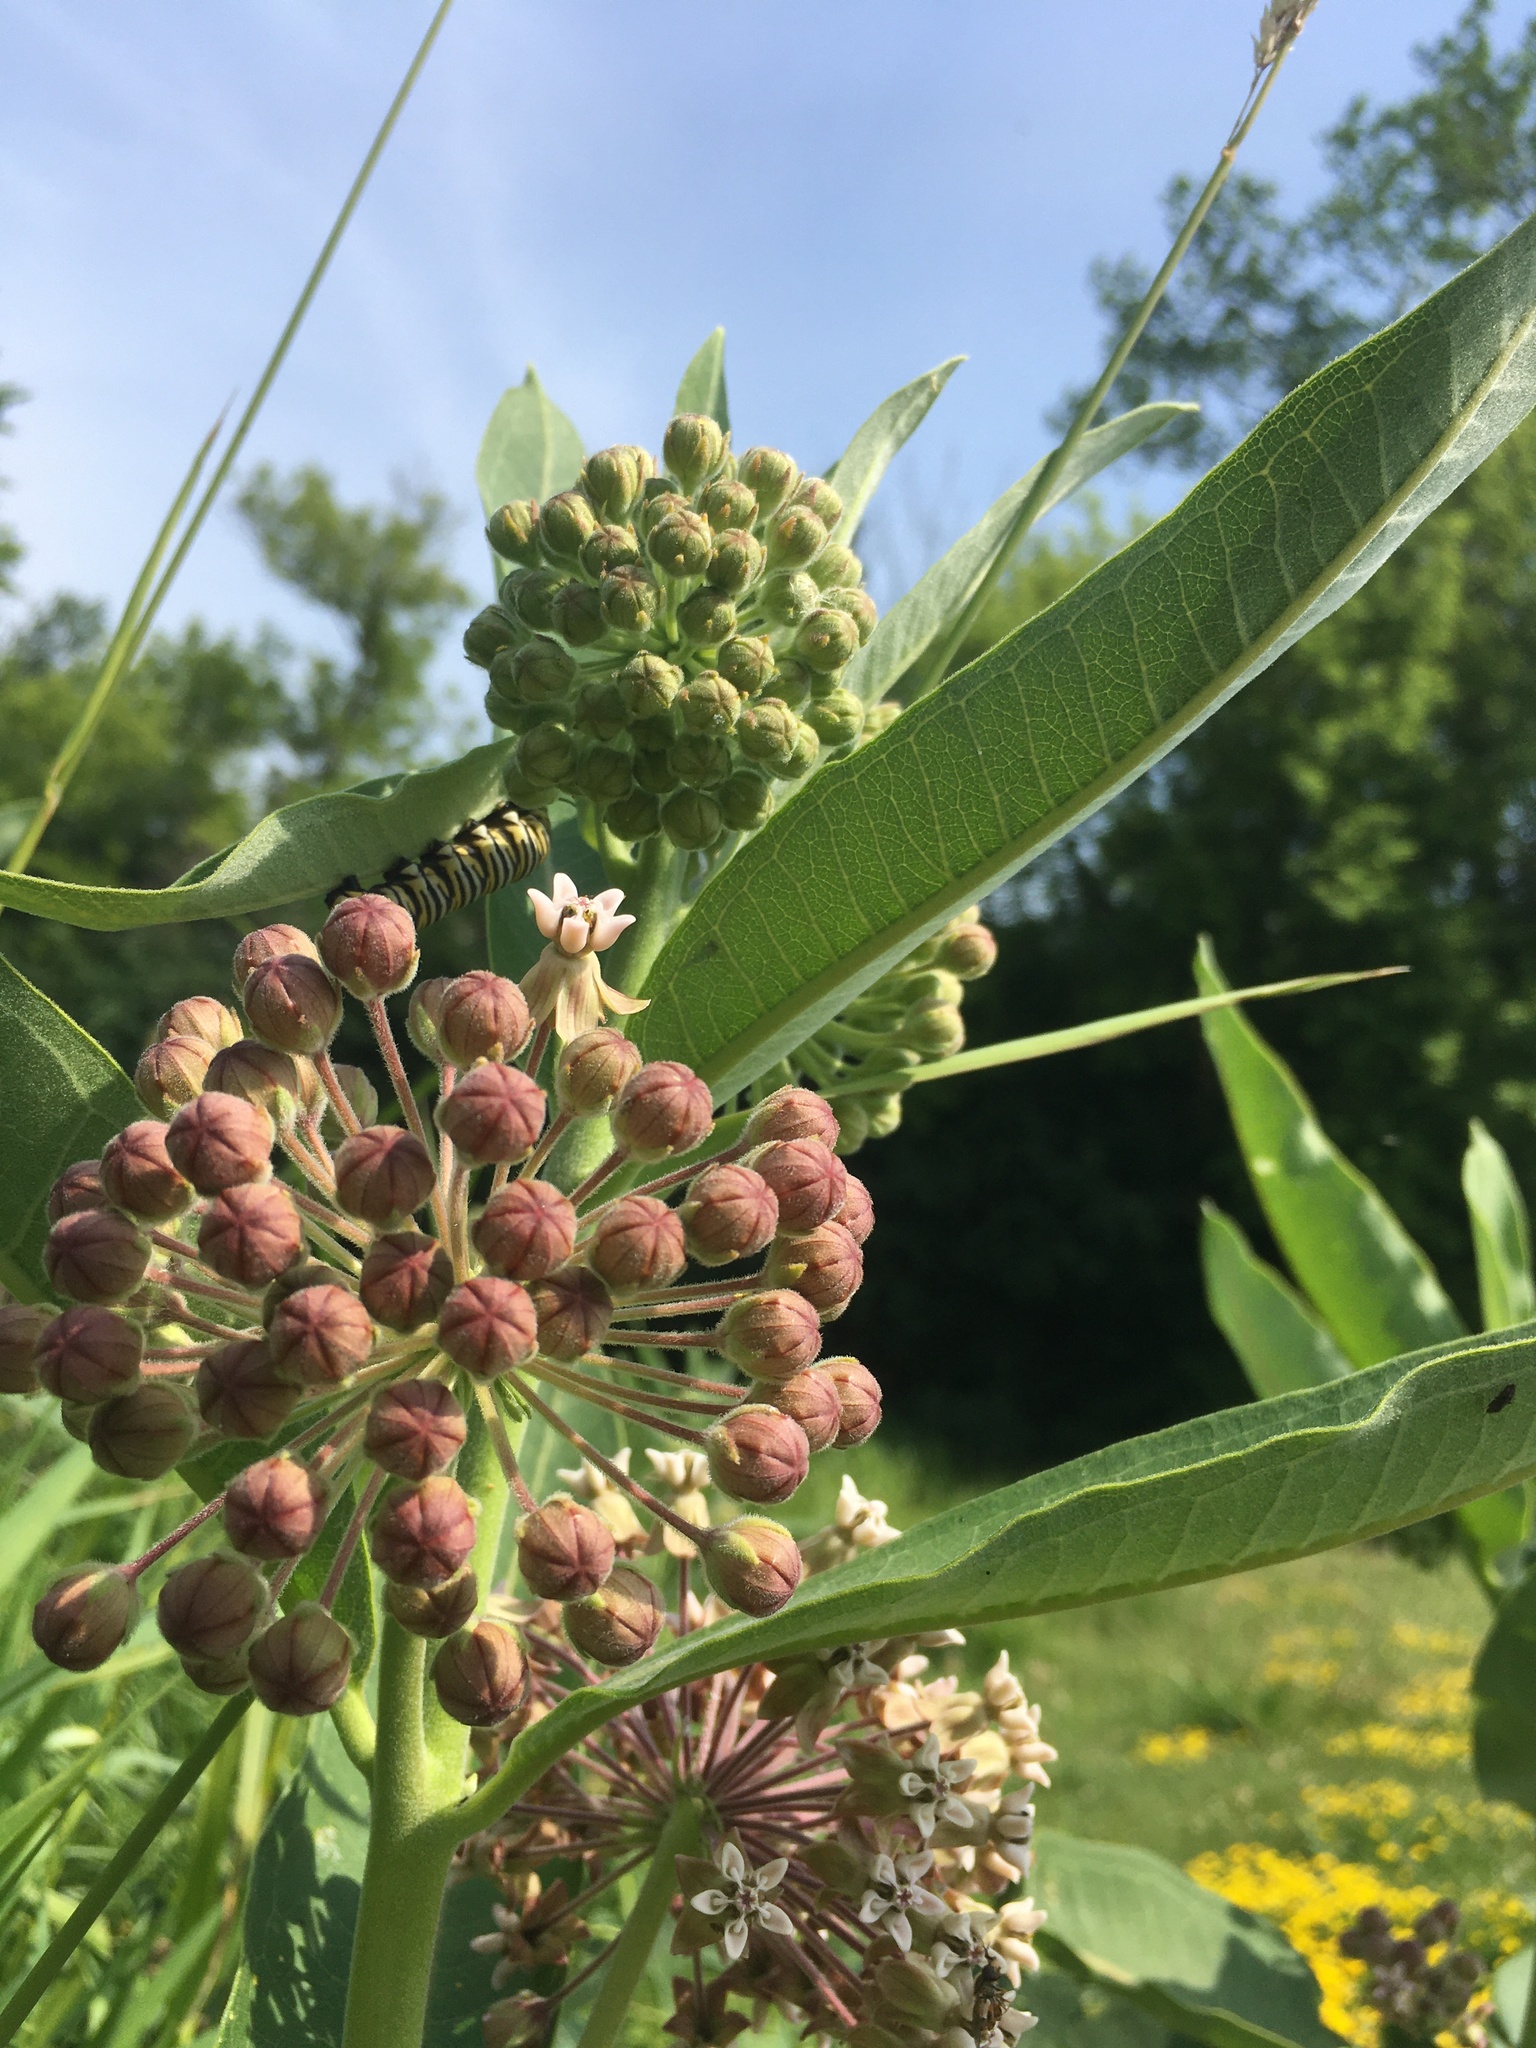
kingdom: Plantae
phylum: Tracheophyta
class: Magnoliopsida
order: Gentianales
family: Apocynaceae
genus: Asclepias
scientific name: Asclepias syriaca
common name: Common milkweed
